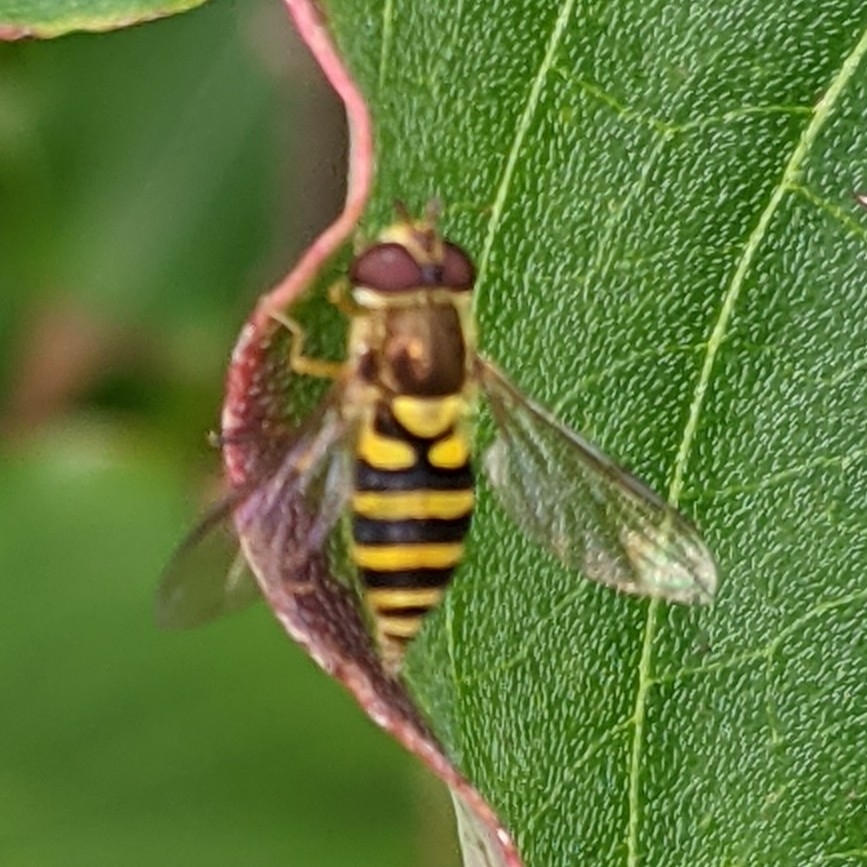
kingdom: Animalia
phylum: Arthropoda
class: Insecta
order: Diptera
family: Syrphidae
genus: Syrphus
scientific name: Syrphus
